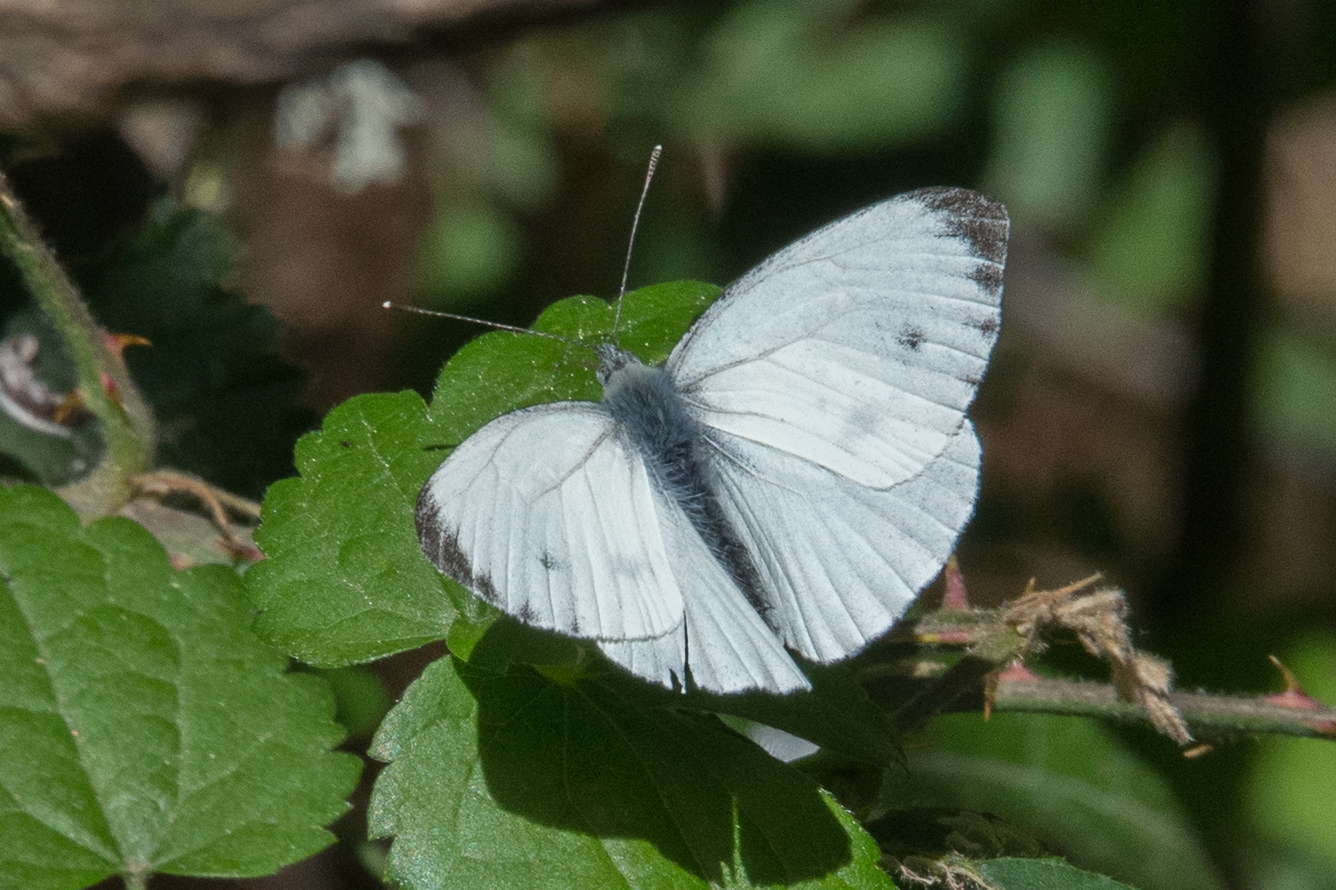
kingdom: Animalia
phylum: Arthropoda
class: Insecta
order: Lepidoptera
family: Pieridae
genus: Pieris
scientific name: Pieris napi
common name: Green-veined white
